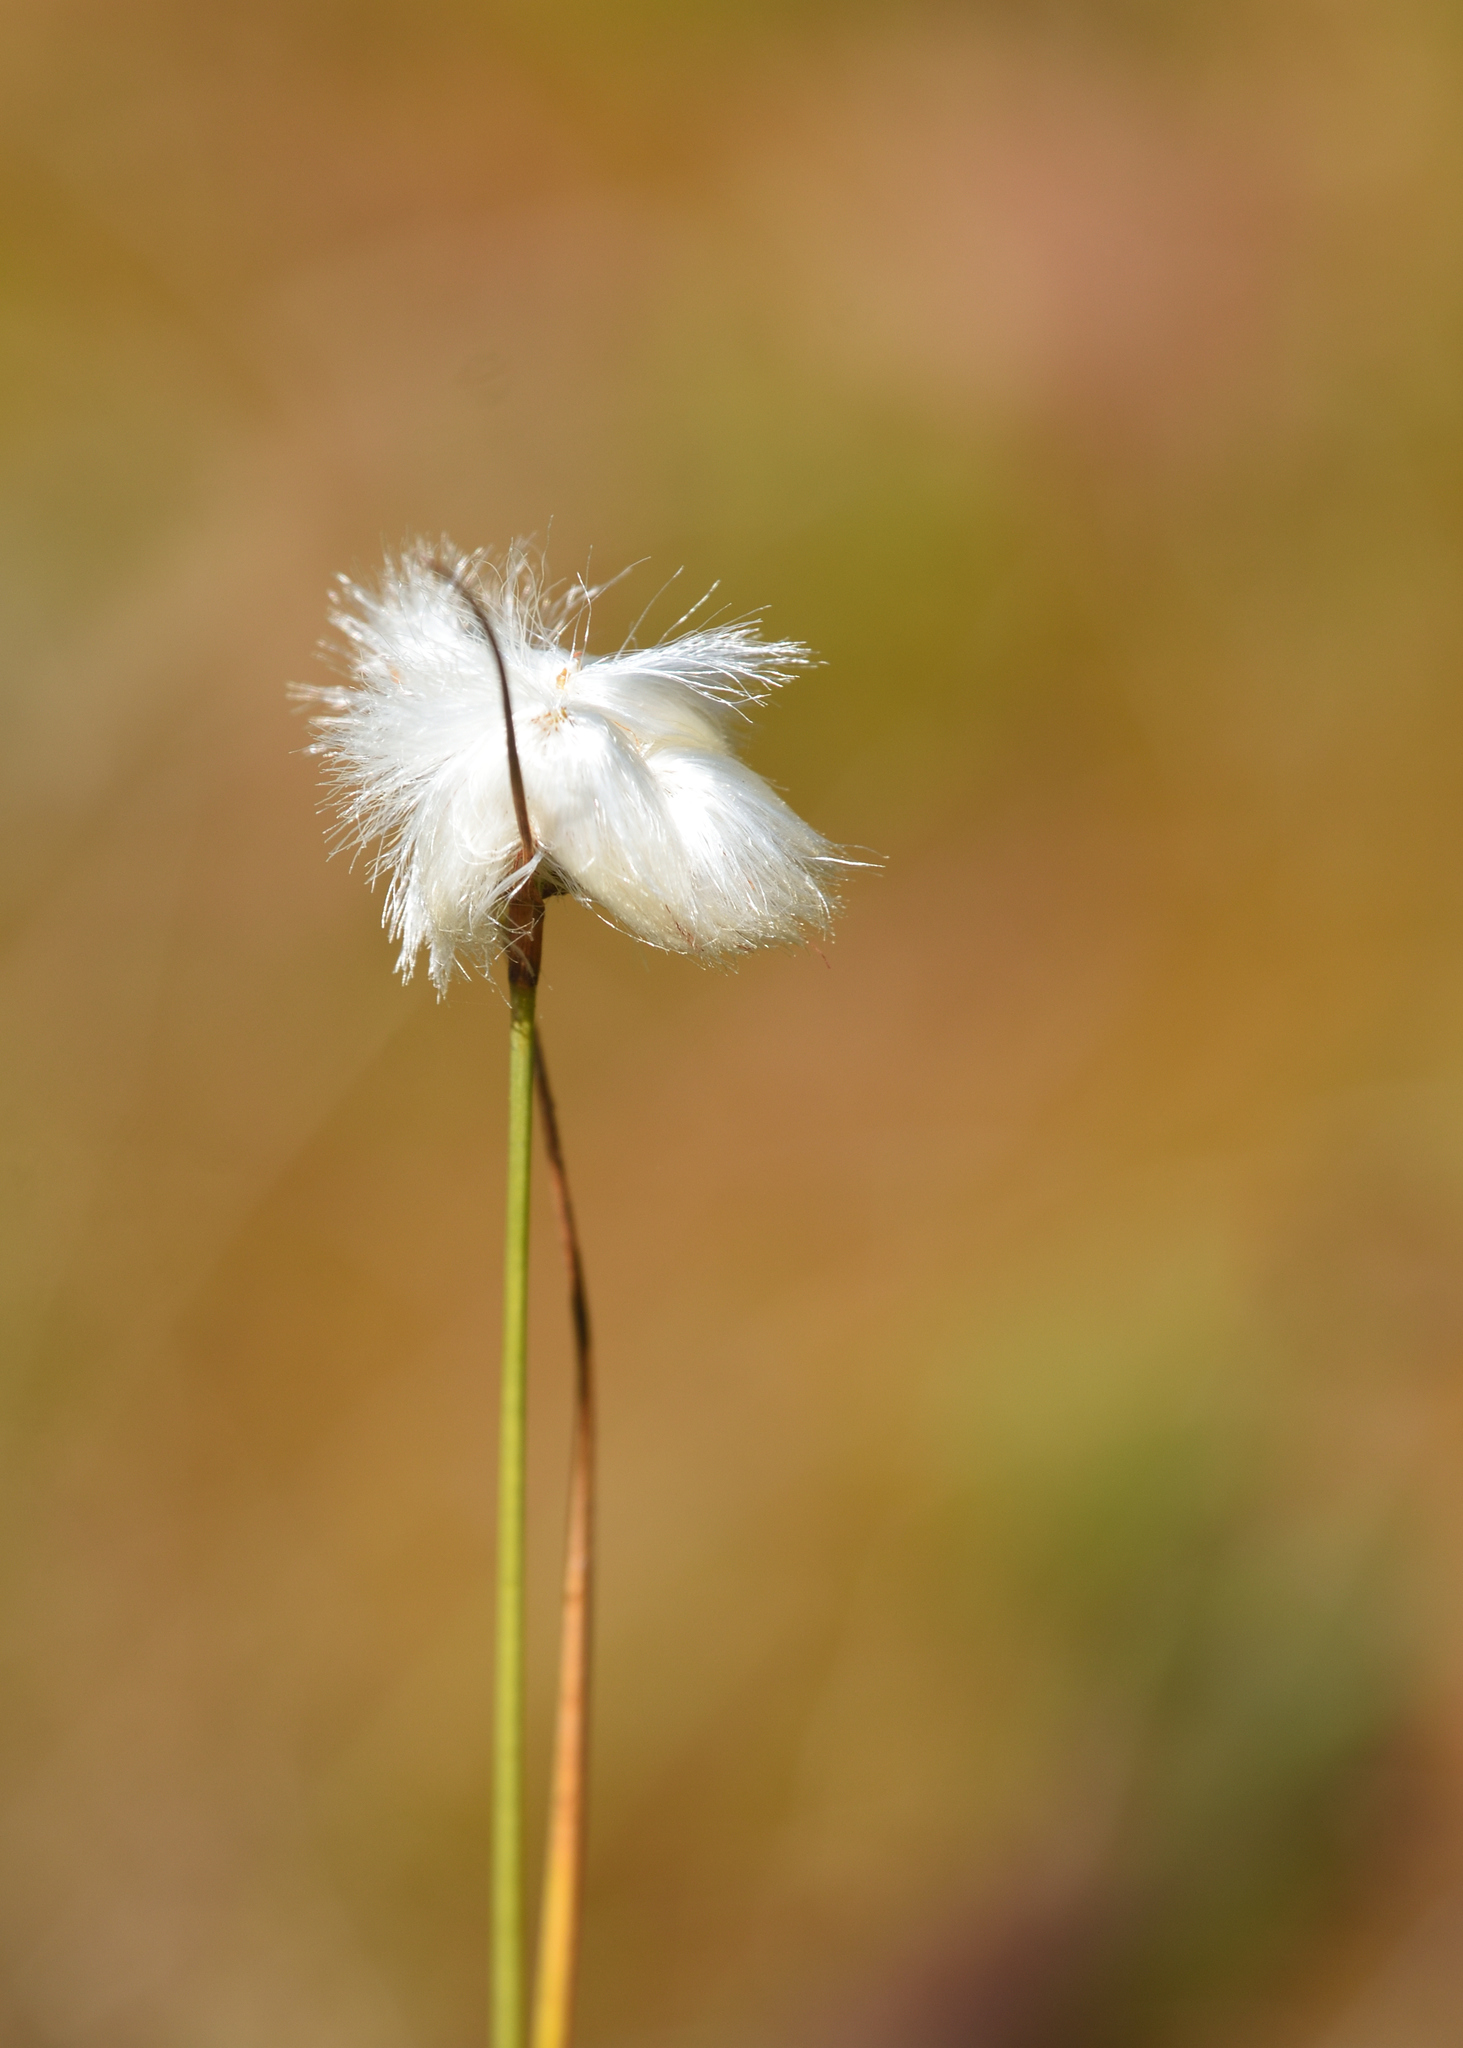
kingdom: Plantae
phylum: Tracheophyta
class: Liliopsida
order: Poales
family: Cyperaceae
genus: Eriophorum
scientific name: Eriophorum virginicum
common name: Tawny cottongrass
